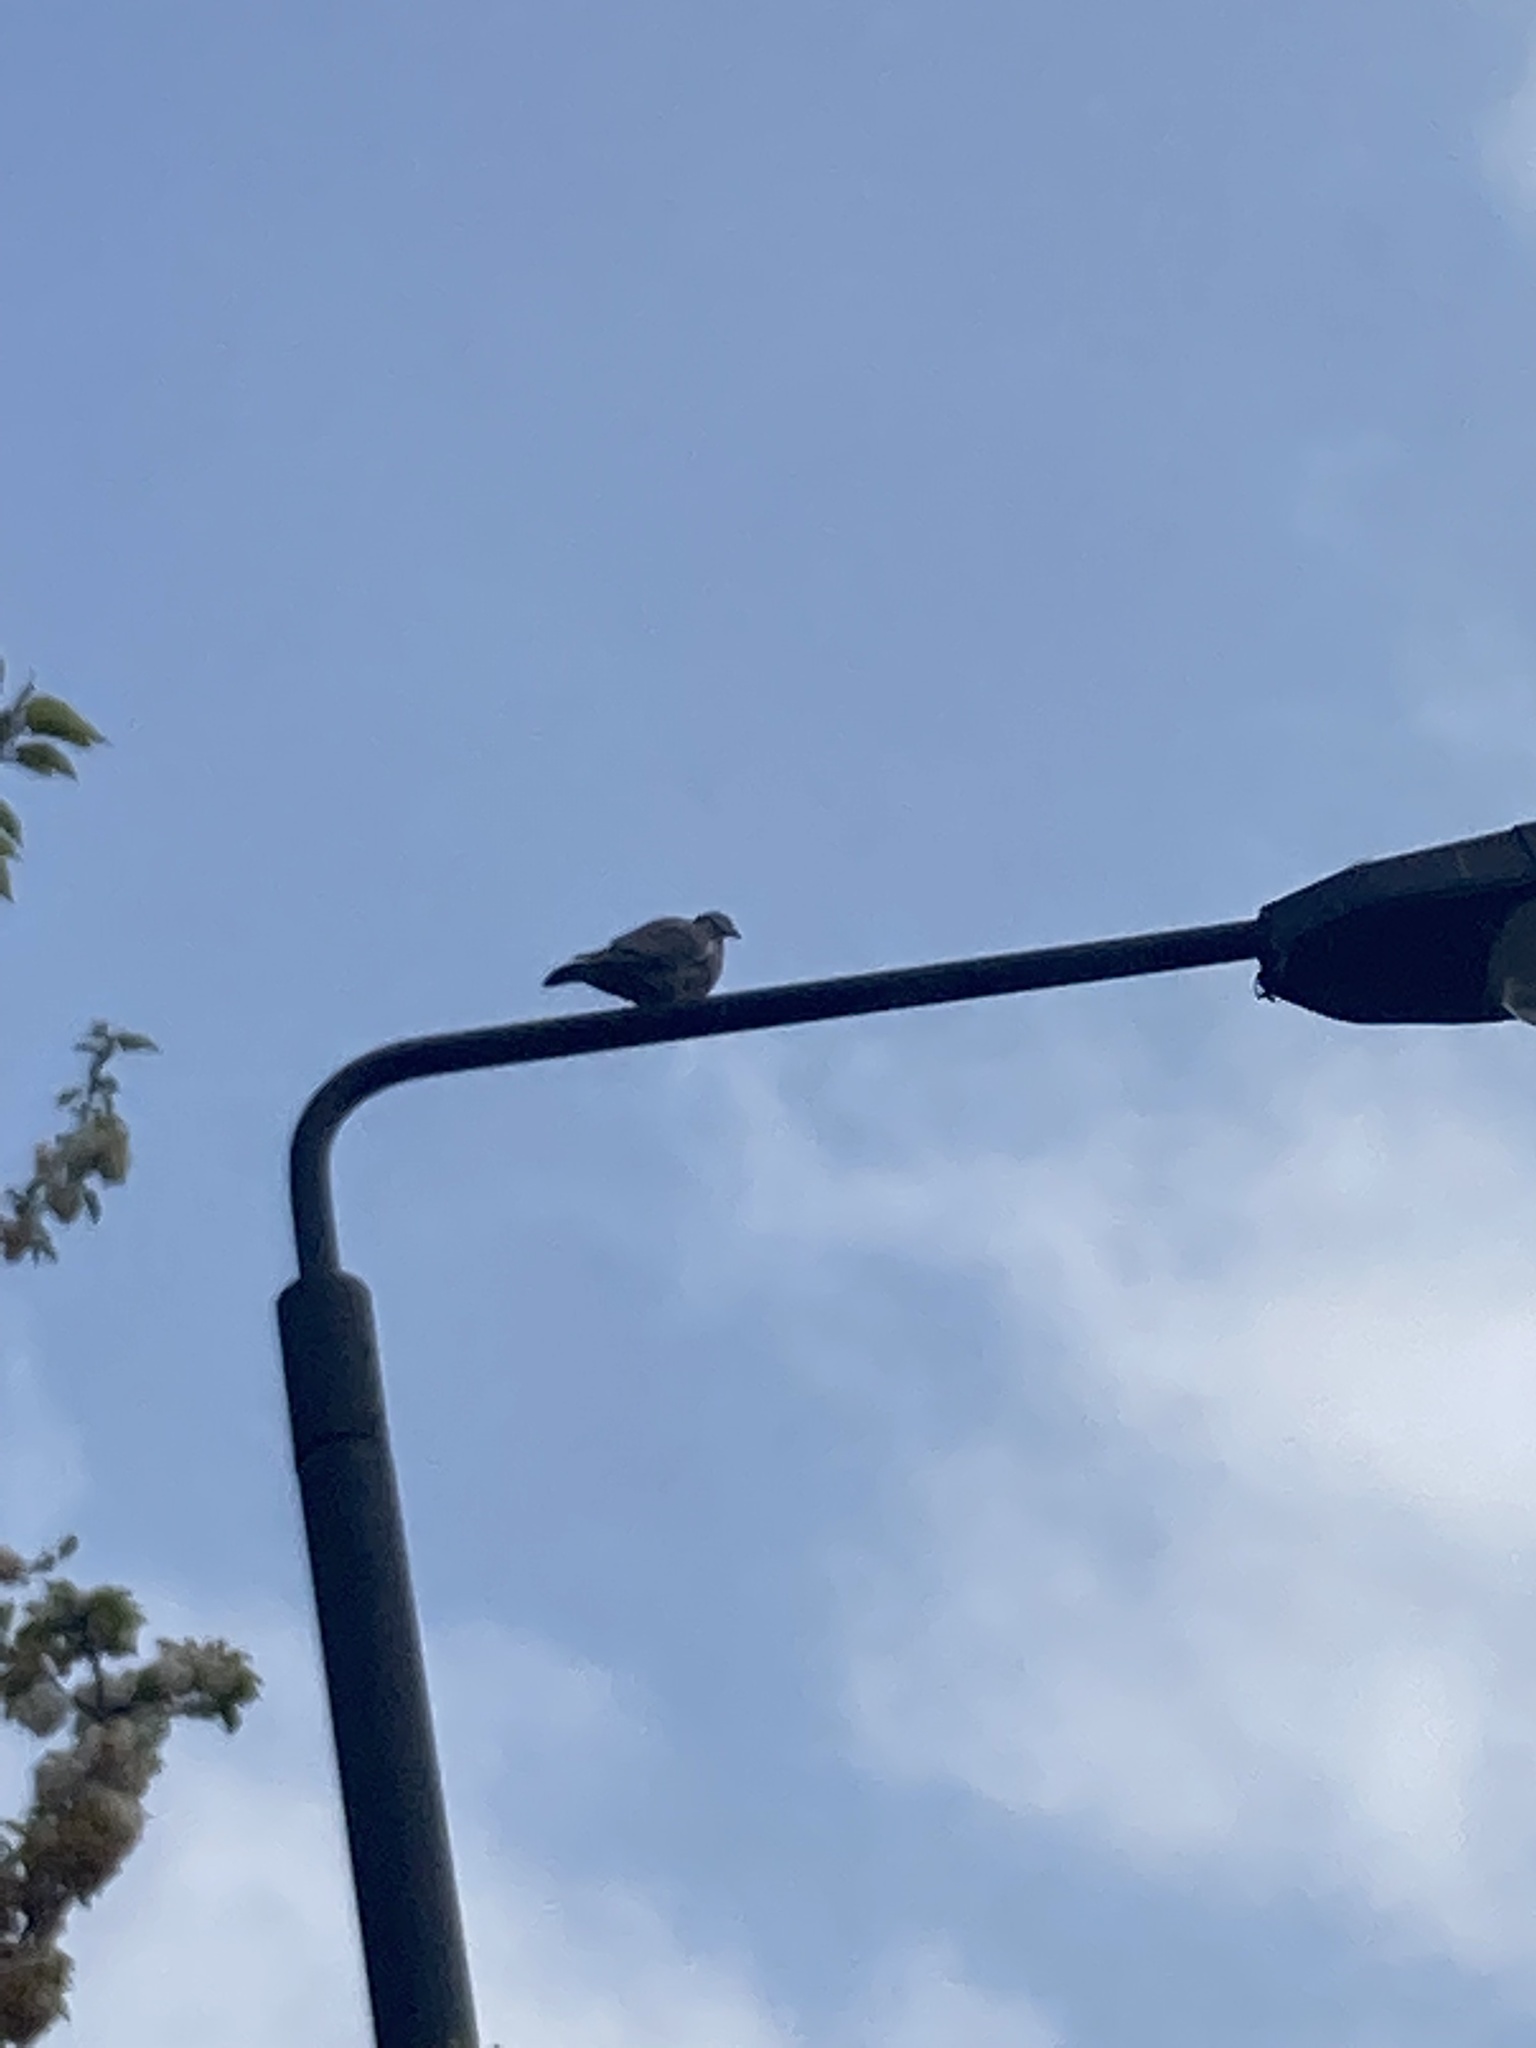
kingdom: Animalia
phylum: Chordata
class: Aves
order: Columbiformes
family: Columbidae
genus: Columba
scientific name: Columba palumbus
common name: Common wood pigeon
